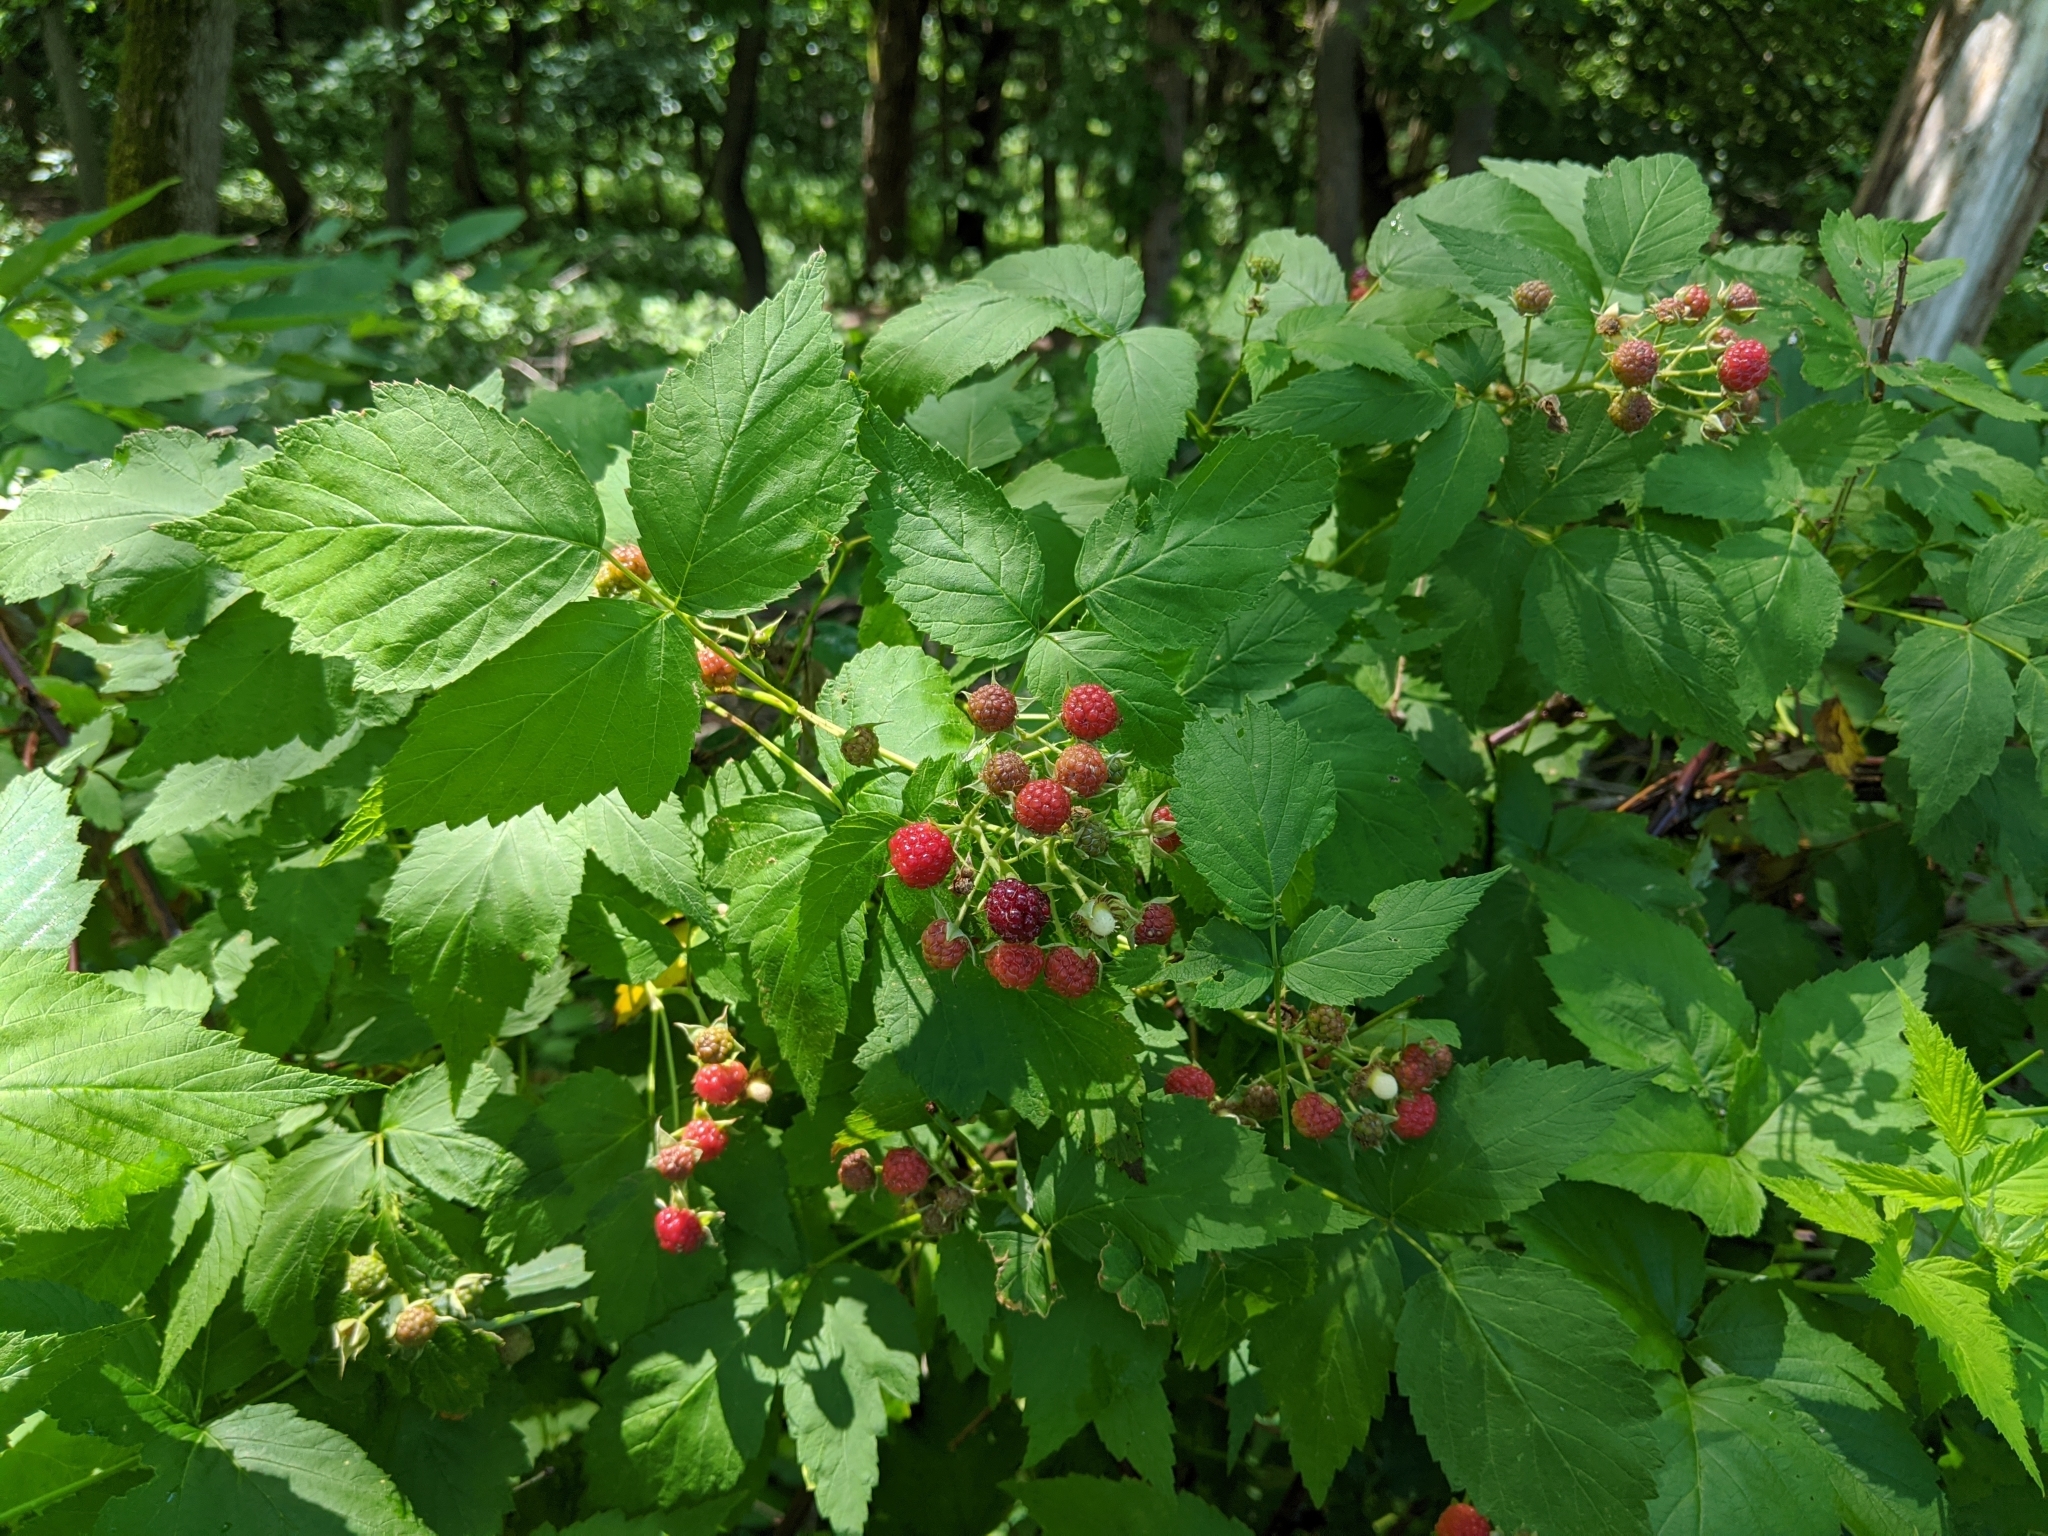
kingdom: Plantae
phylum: Tracheophyta
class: Magnoliopsida
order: Rosales
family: Rosaceae
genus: Rubus
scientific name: Rubus occidentalis
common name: Black raspberry
